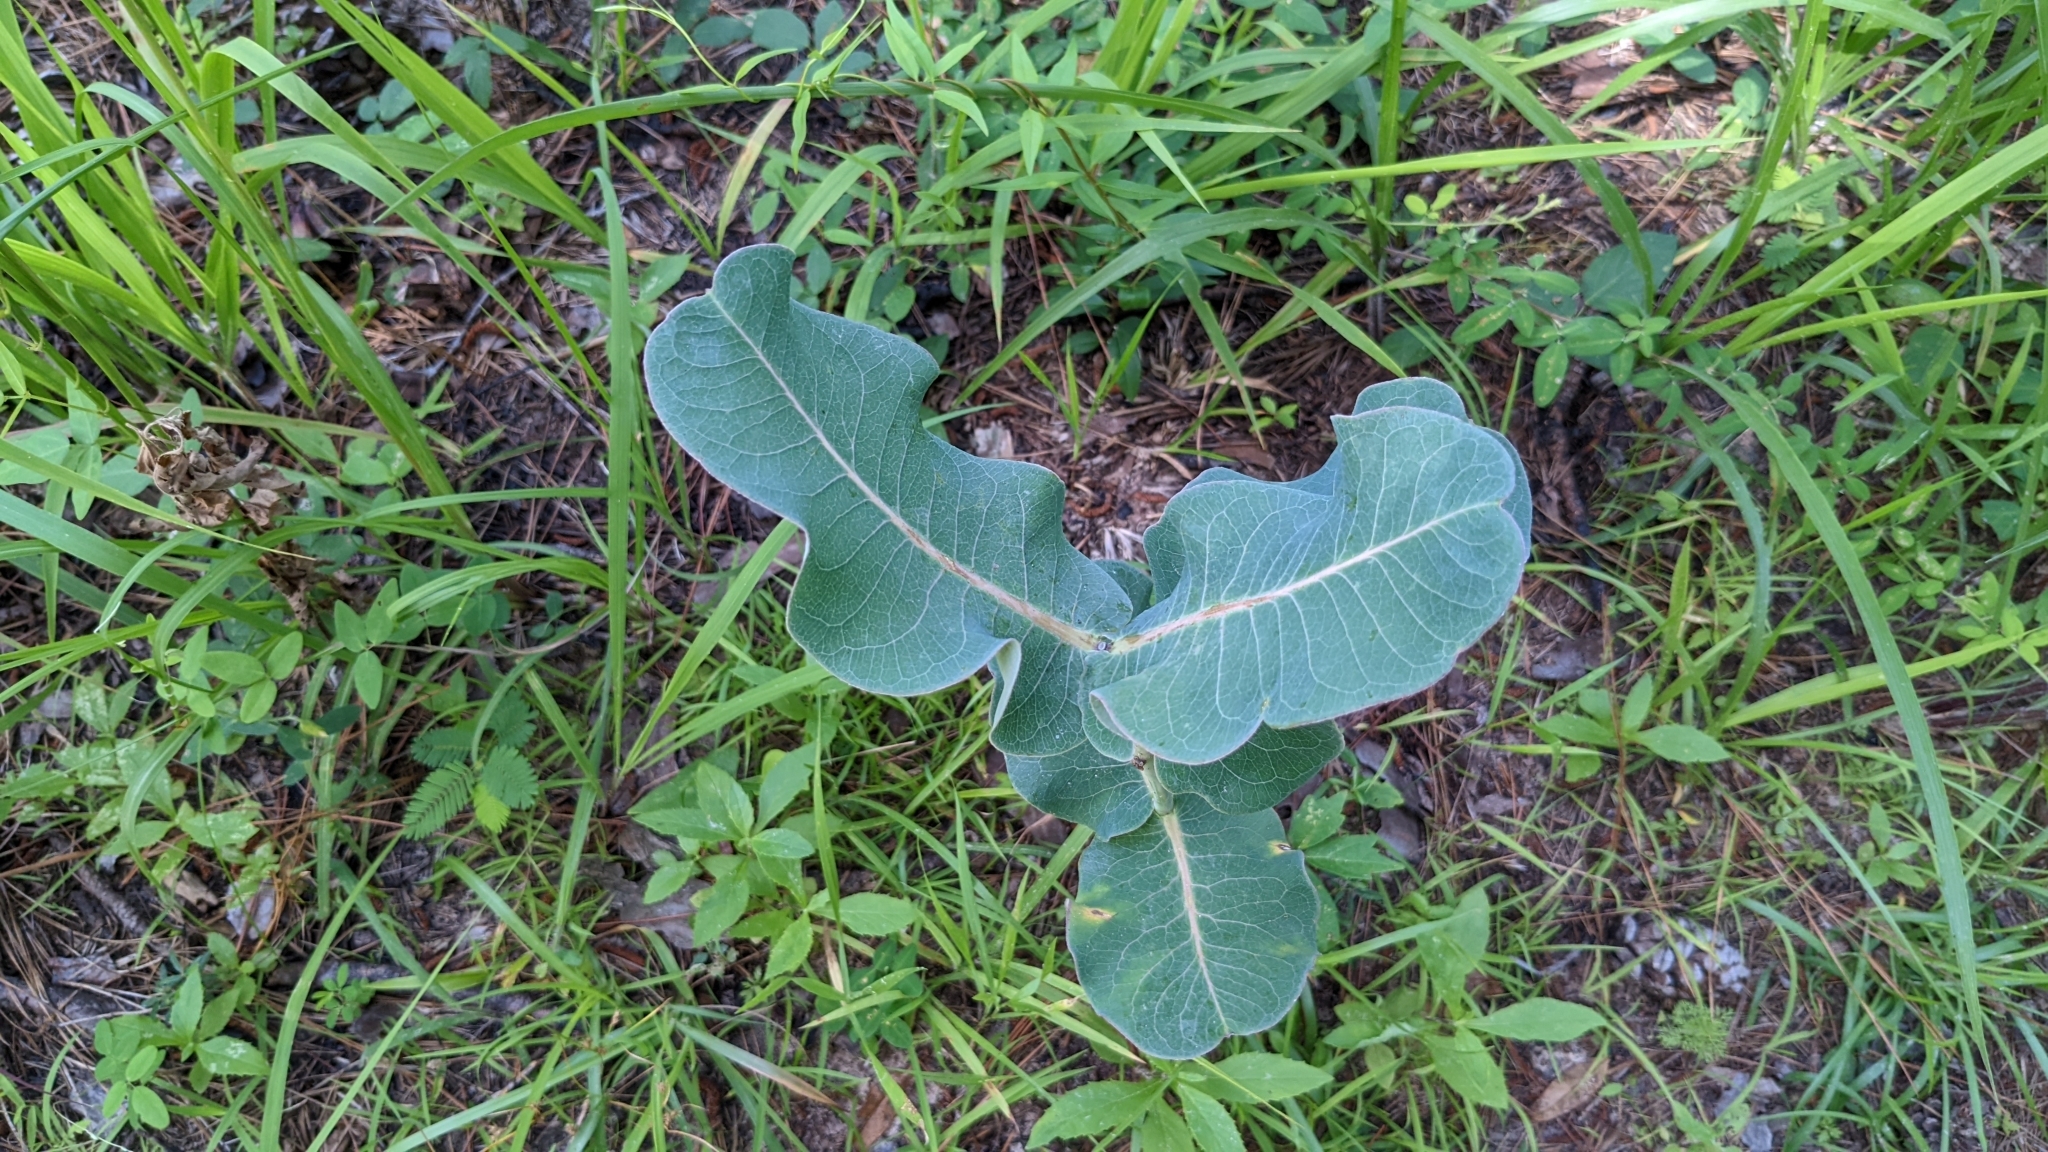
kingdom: Plantae
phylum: Tracheophyta
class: Magnoliopsida
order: Gentianales
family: Apocynaceae
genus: Asclepias
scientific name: Asclepias amplexicaulis
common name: Blunt-leaf milkweed
